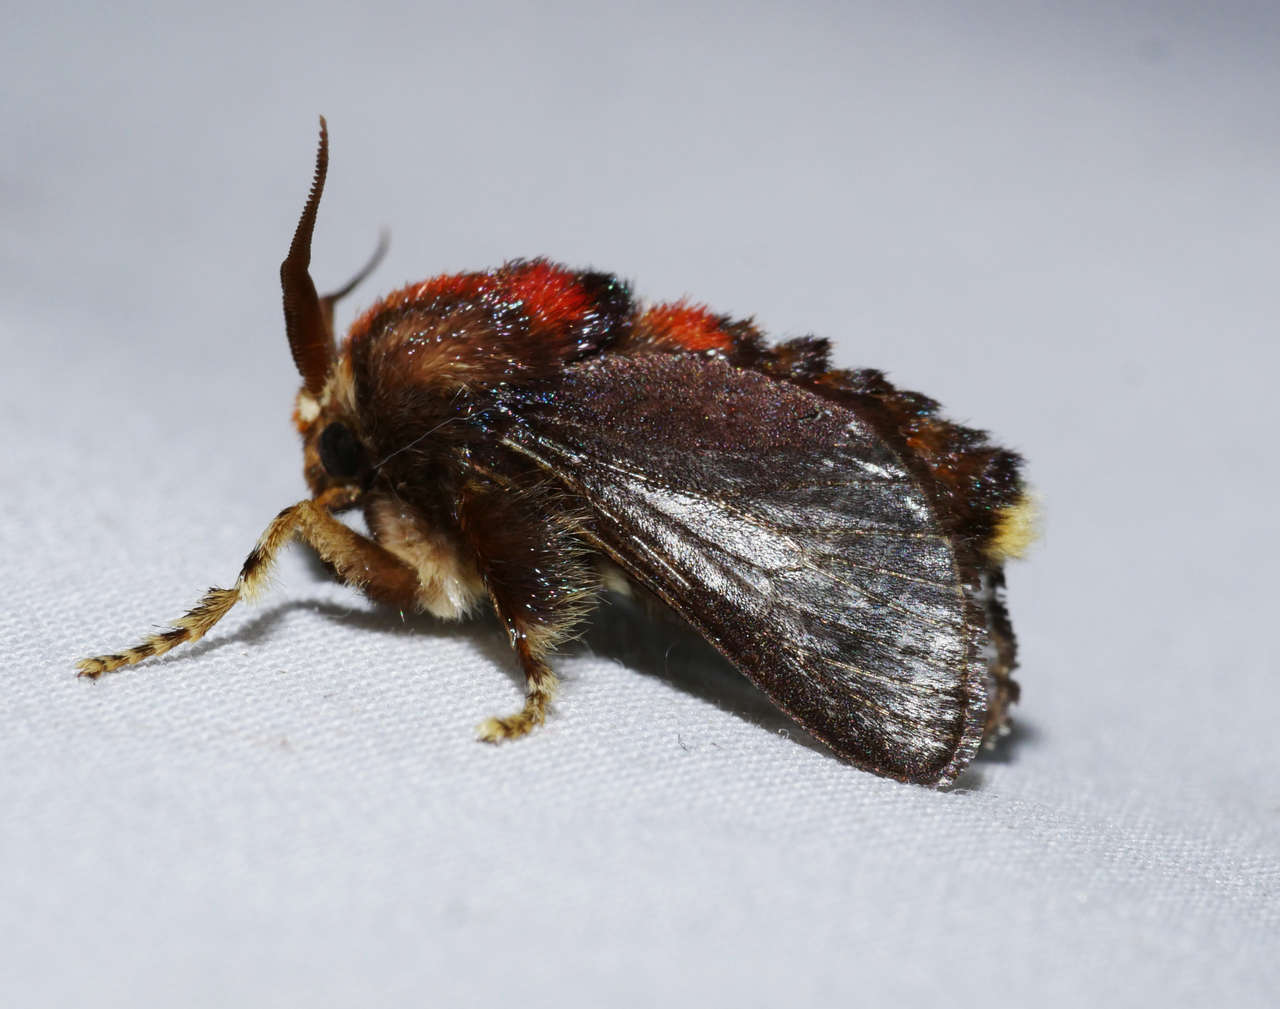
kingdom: Animalia
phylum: Arthropoda
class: Insecta
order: Lepidoptera
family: Limacodidae
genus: Doratifera
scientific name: Doratifera oxleyi
